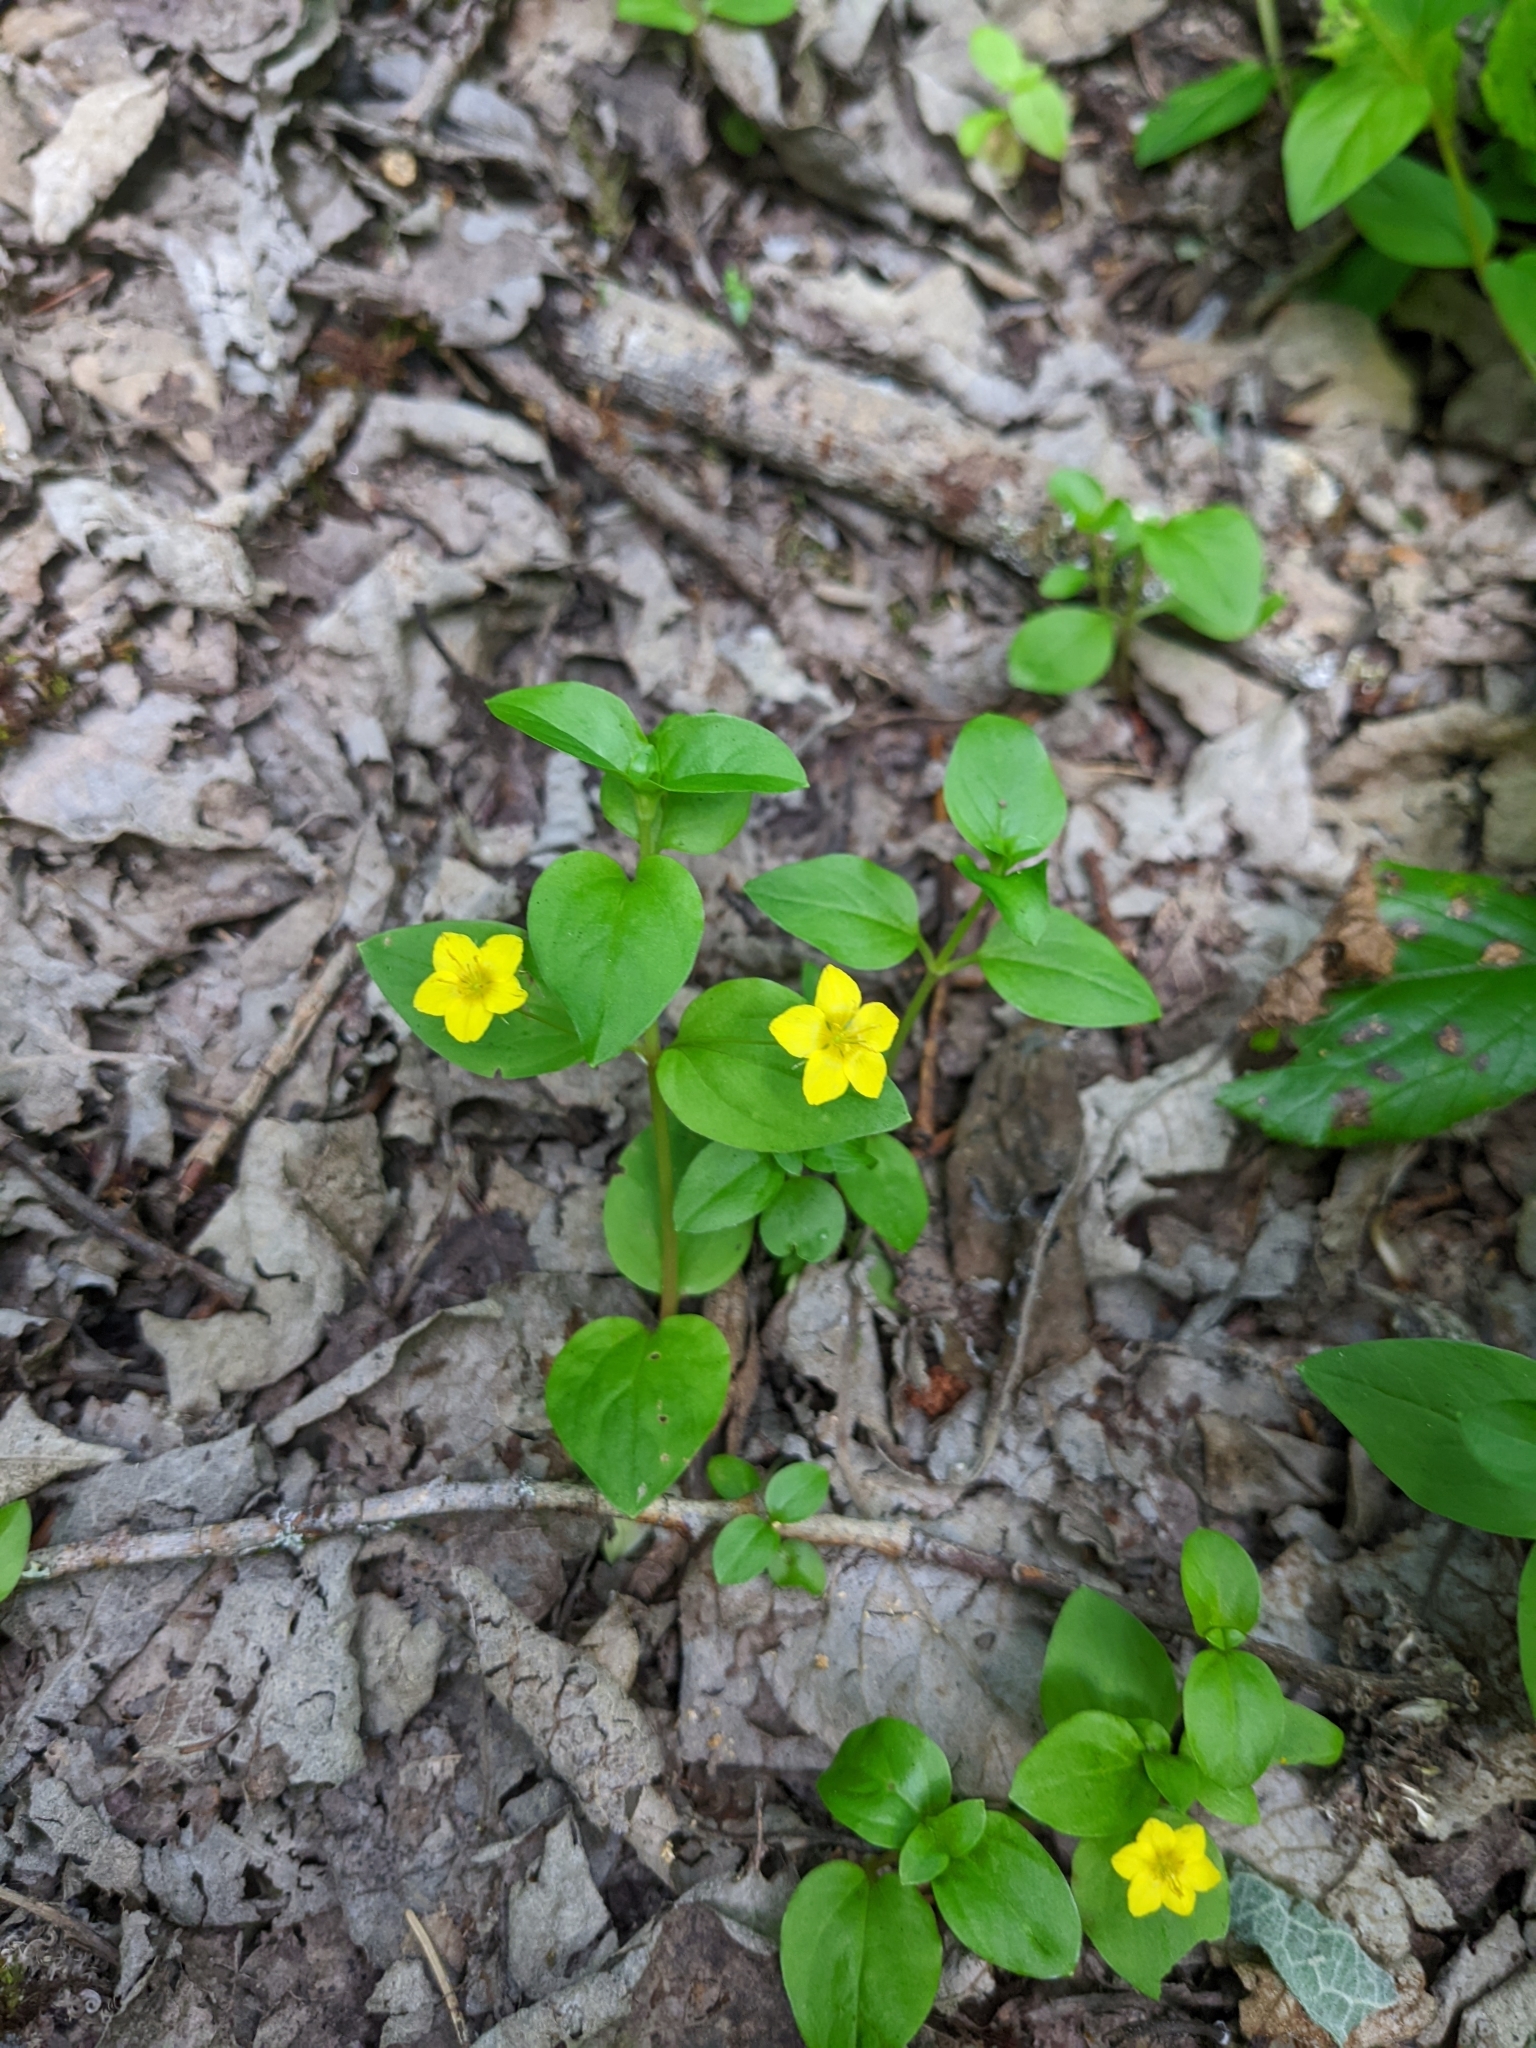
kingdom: Plantae
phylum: Tracheophyta
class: Magnoliopsida
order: Ericales
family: Primulaceae
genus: Lysimachia
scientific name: Lysimachia nemorum
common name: Yellow pimpernel
